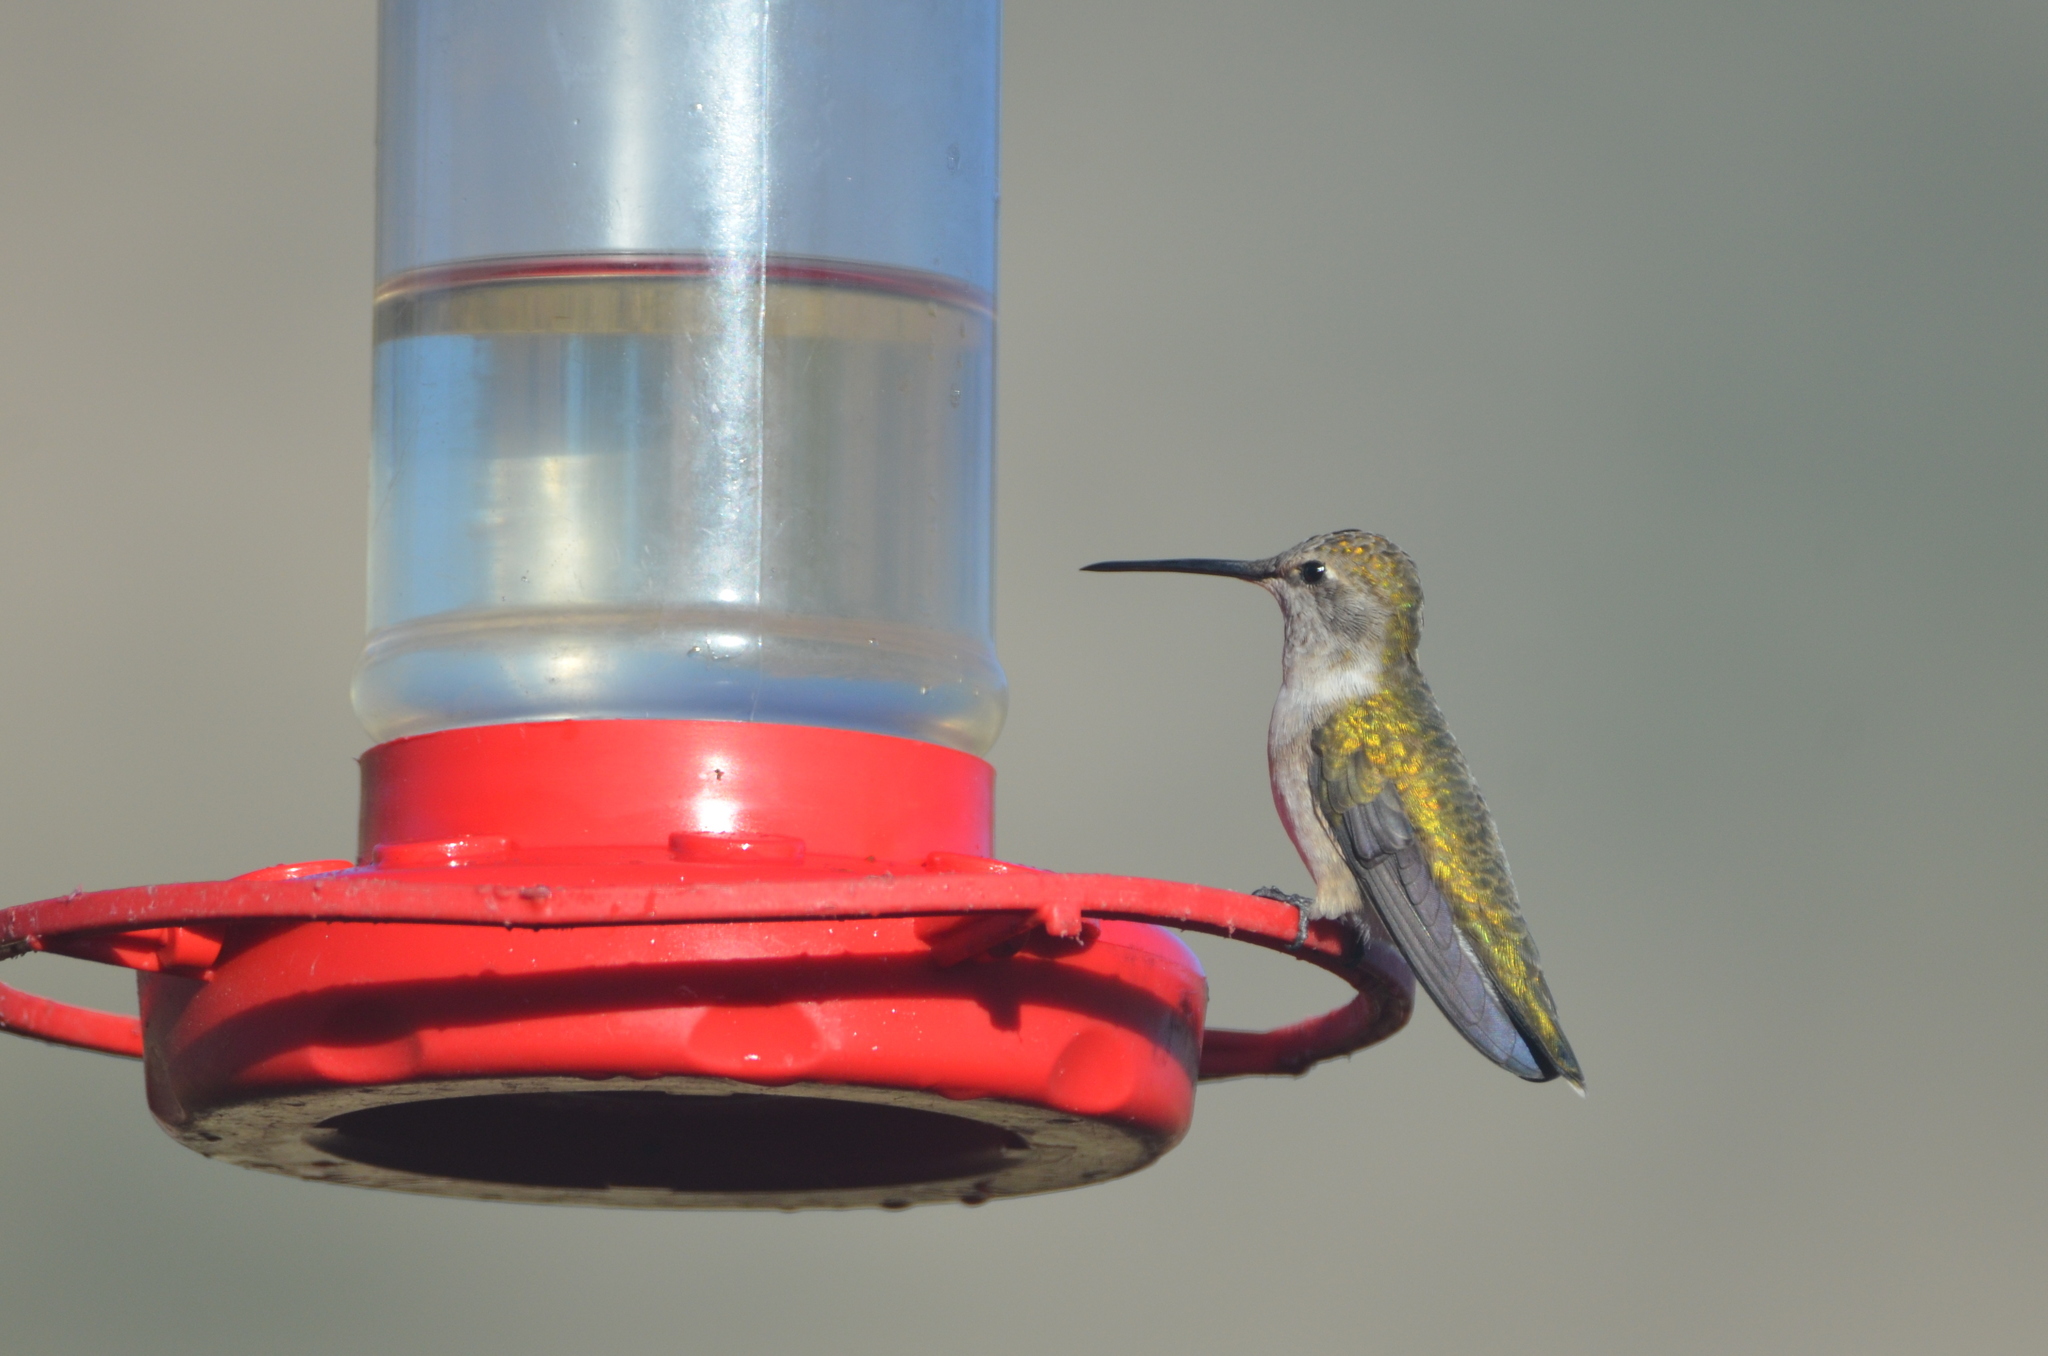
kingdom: Animalia
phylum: Chordata
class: Aves
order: Apodiformes
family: Trochilidae
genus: Archilochus
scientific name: Archilochus alexandri
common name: Black-chinned hummingbird
